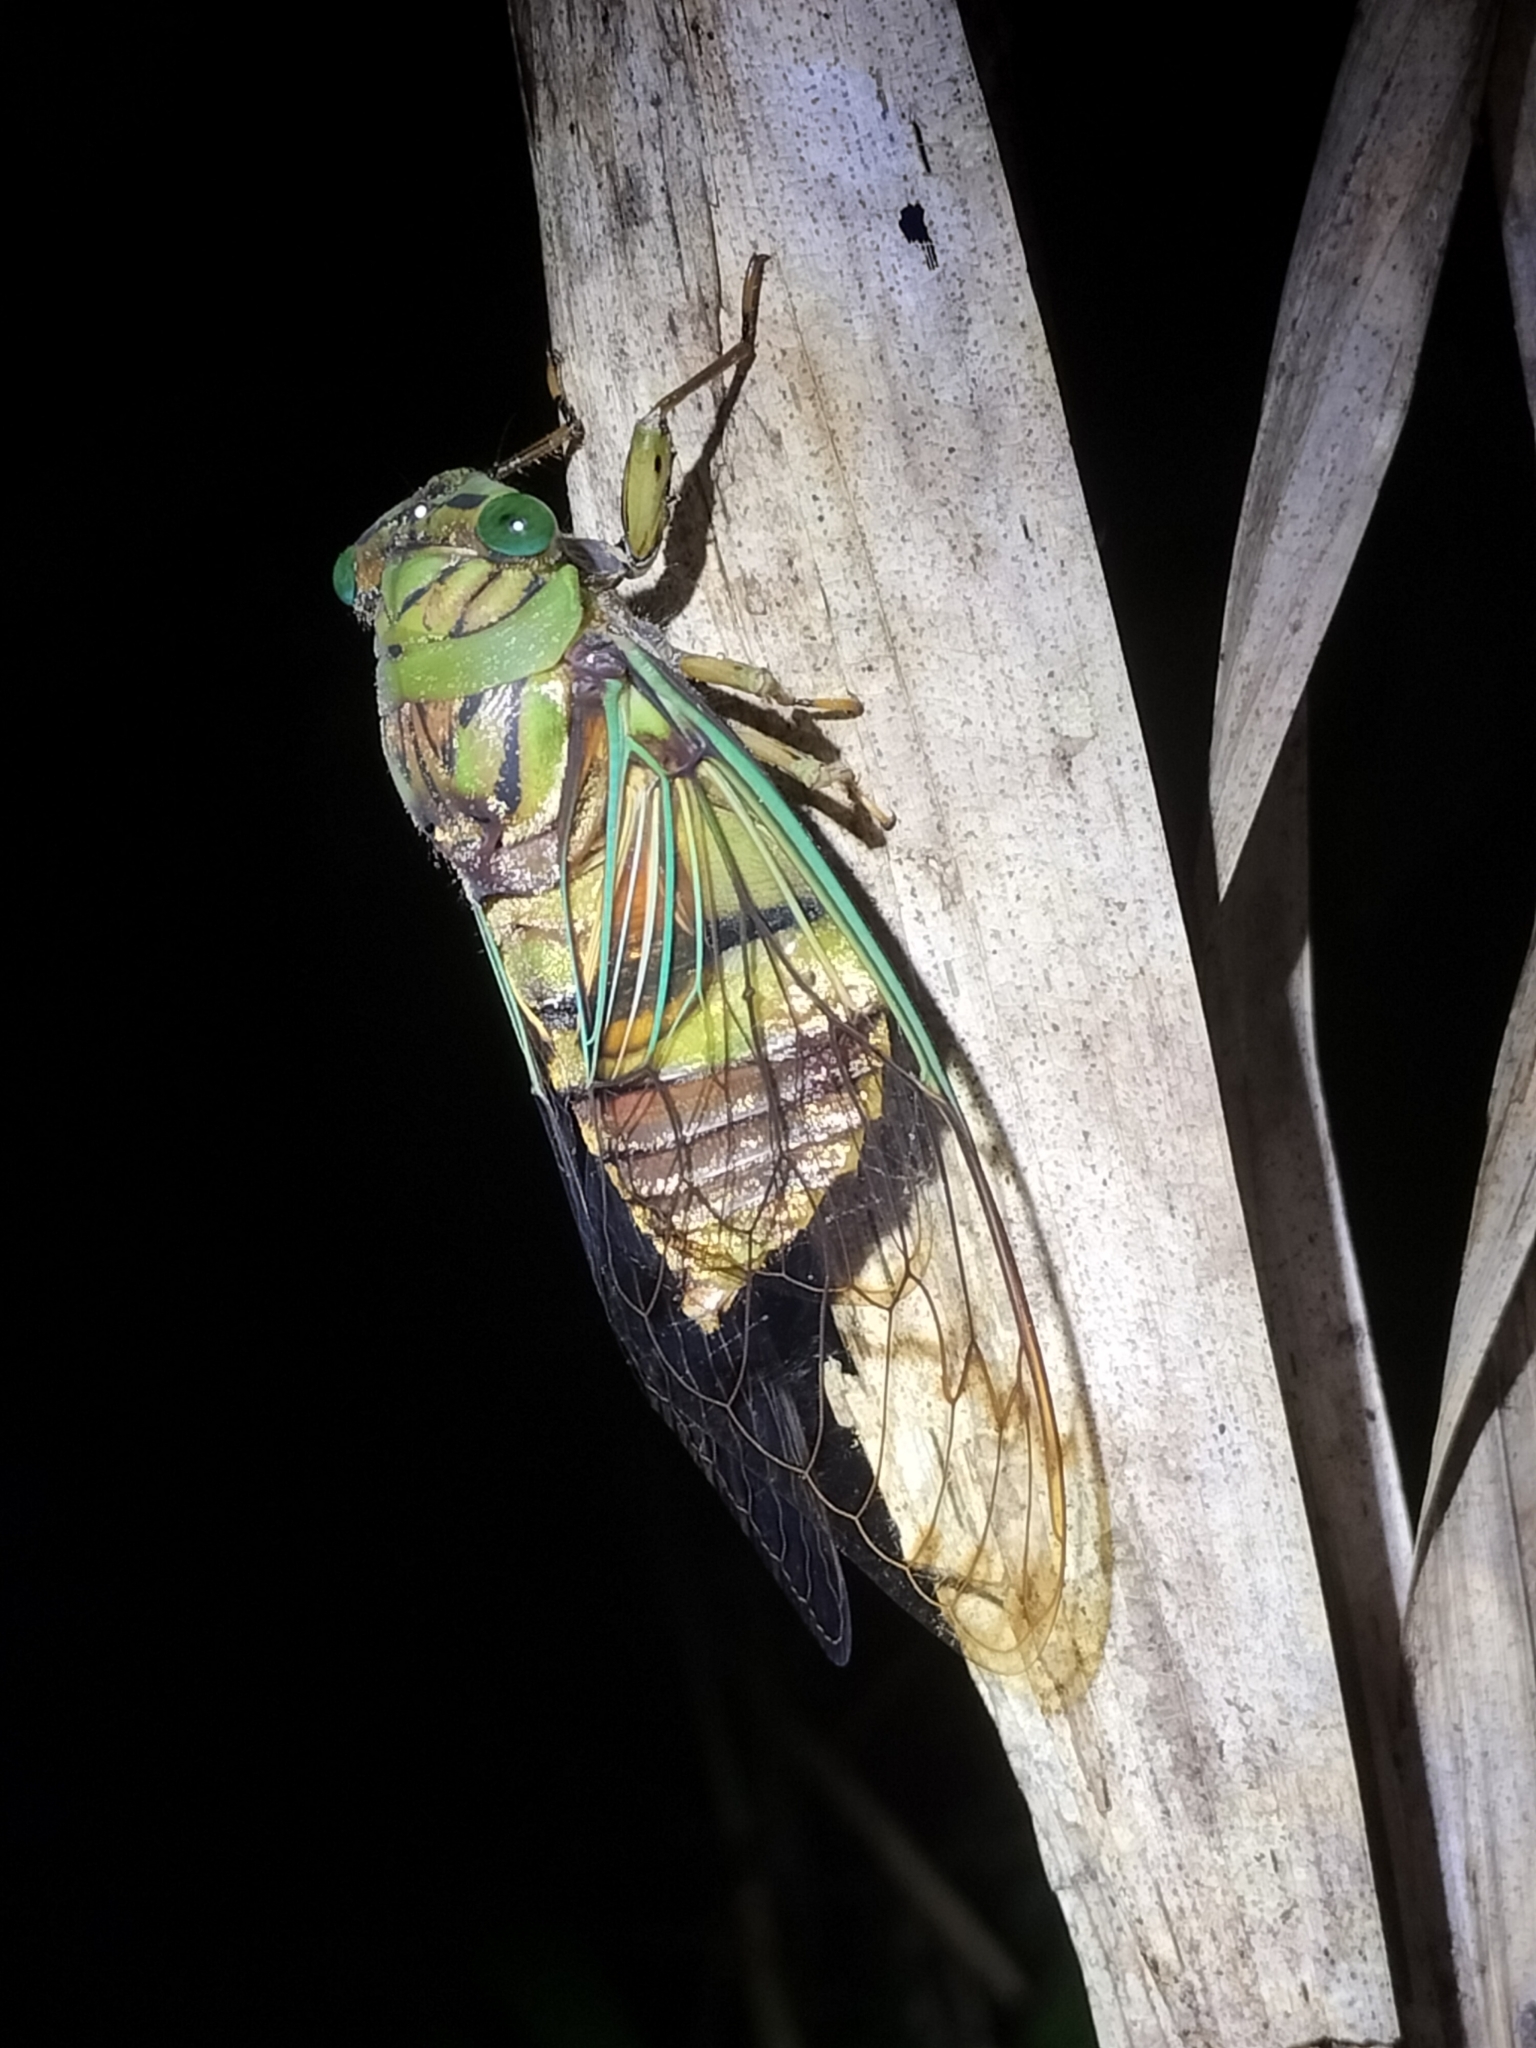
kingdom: Animalia
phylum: Arthropoda
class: Insecta
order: Hemiptera
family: Cicadidae
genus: Anapsaltoda
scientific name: Anapsaltoda pulchra
